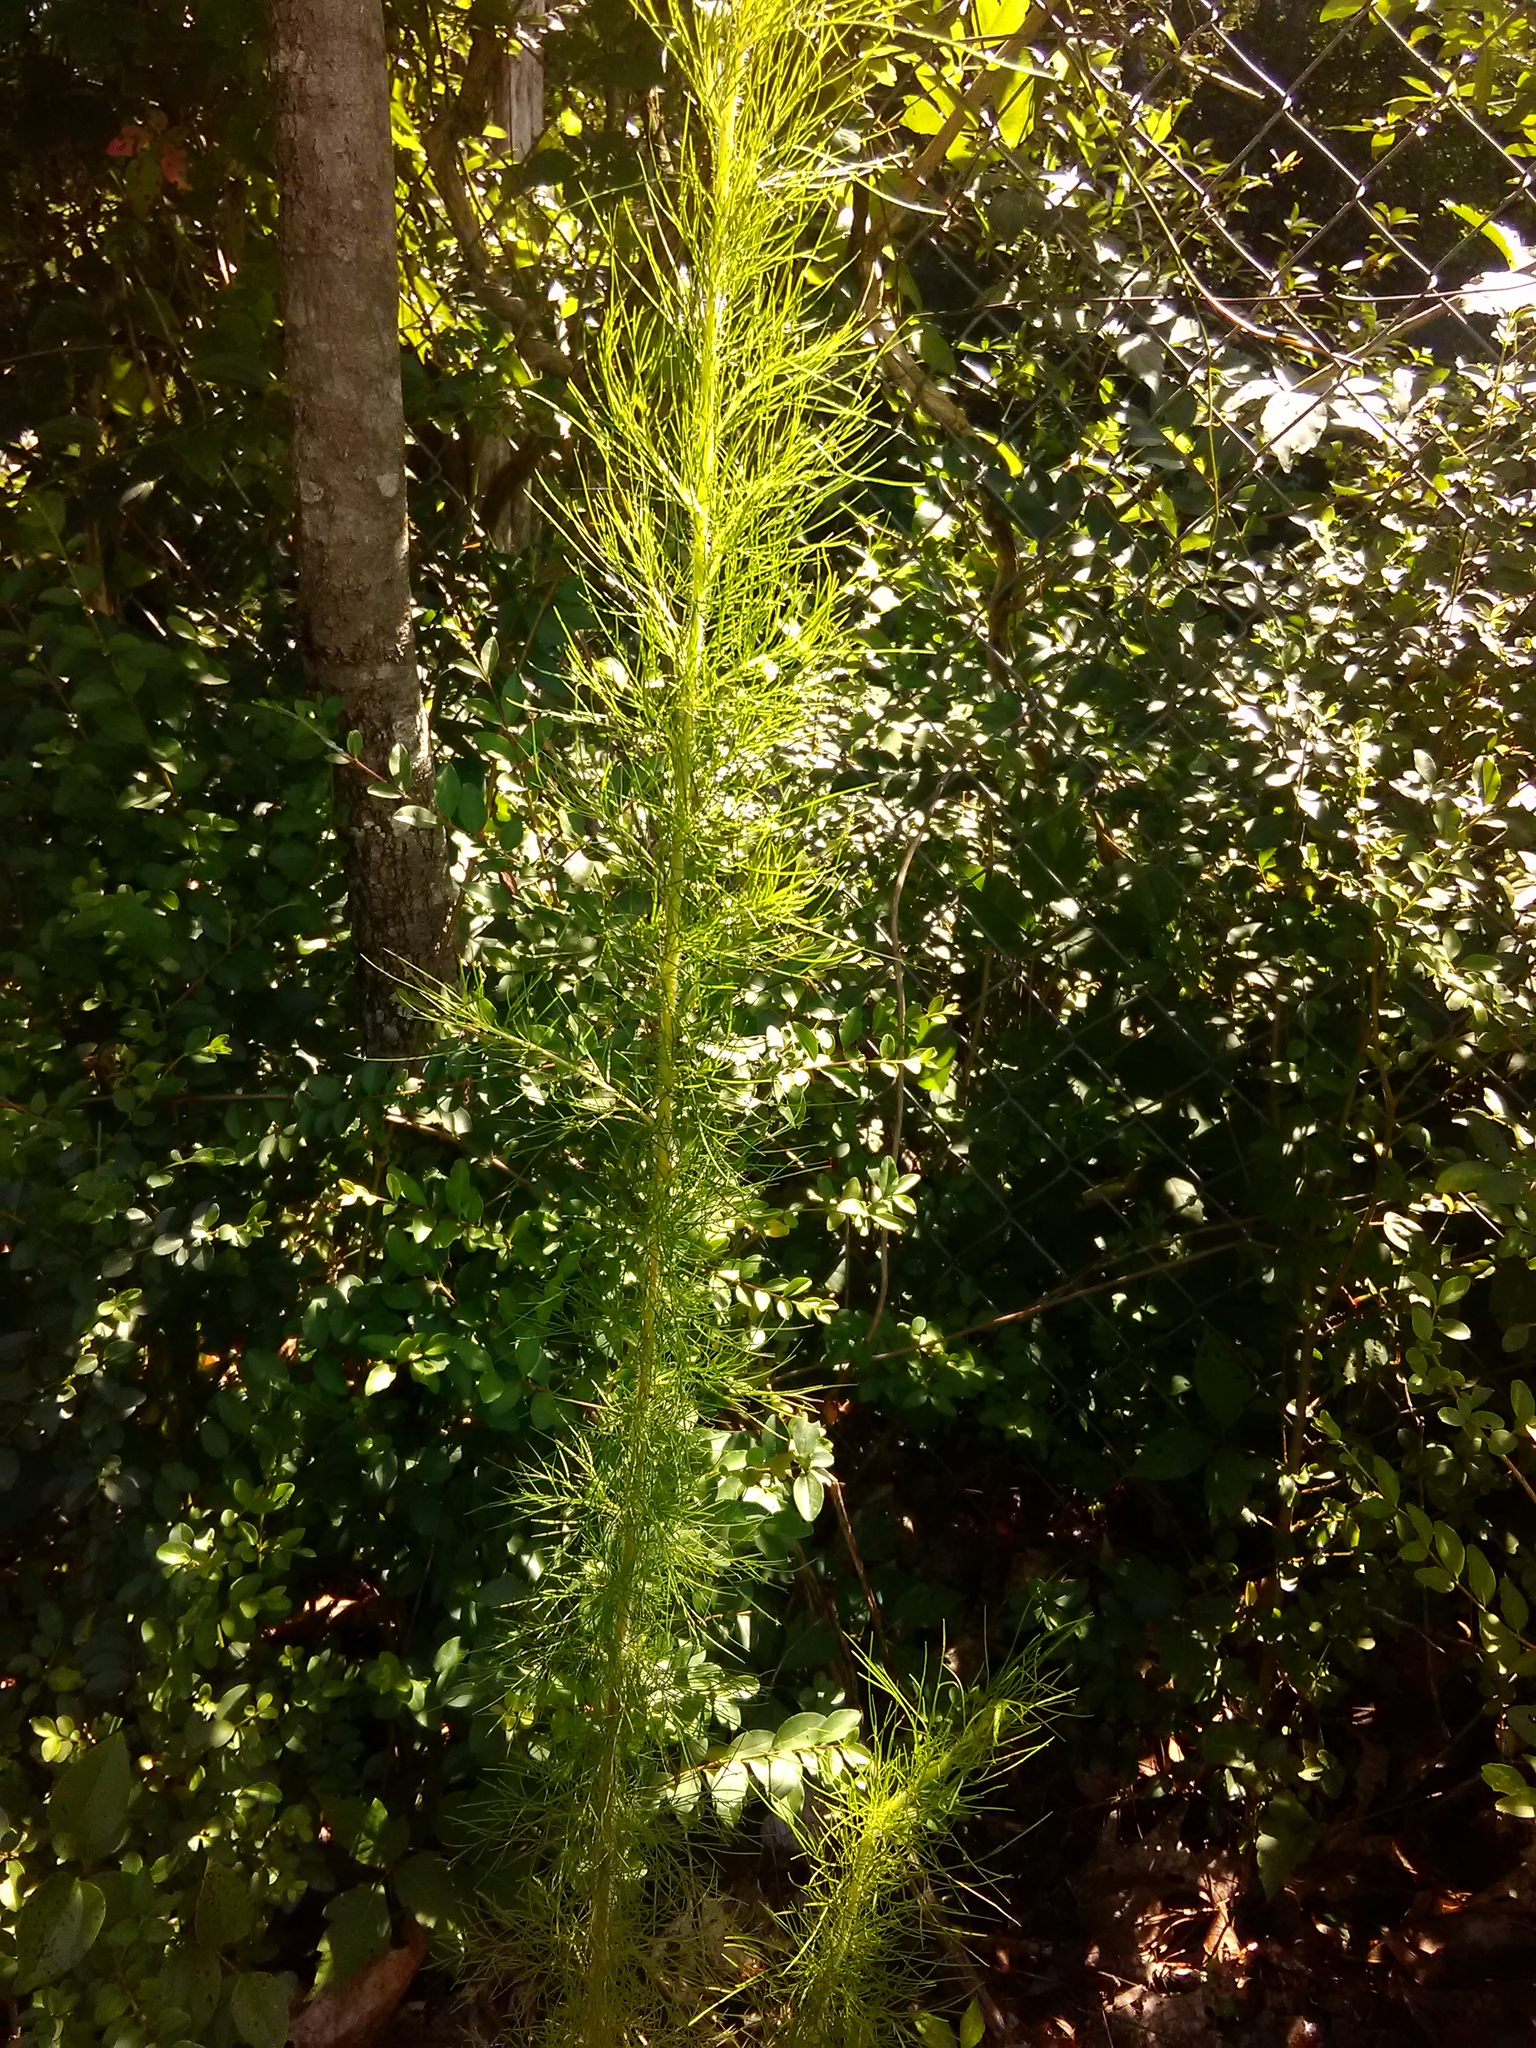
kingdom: Plantae
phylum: Tracheophyta
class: Magnoliopsida
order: Asterales
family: Asteraceae
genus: Eupatorium
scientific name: Eupatorium capillifolium
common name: Dog-fennel
